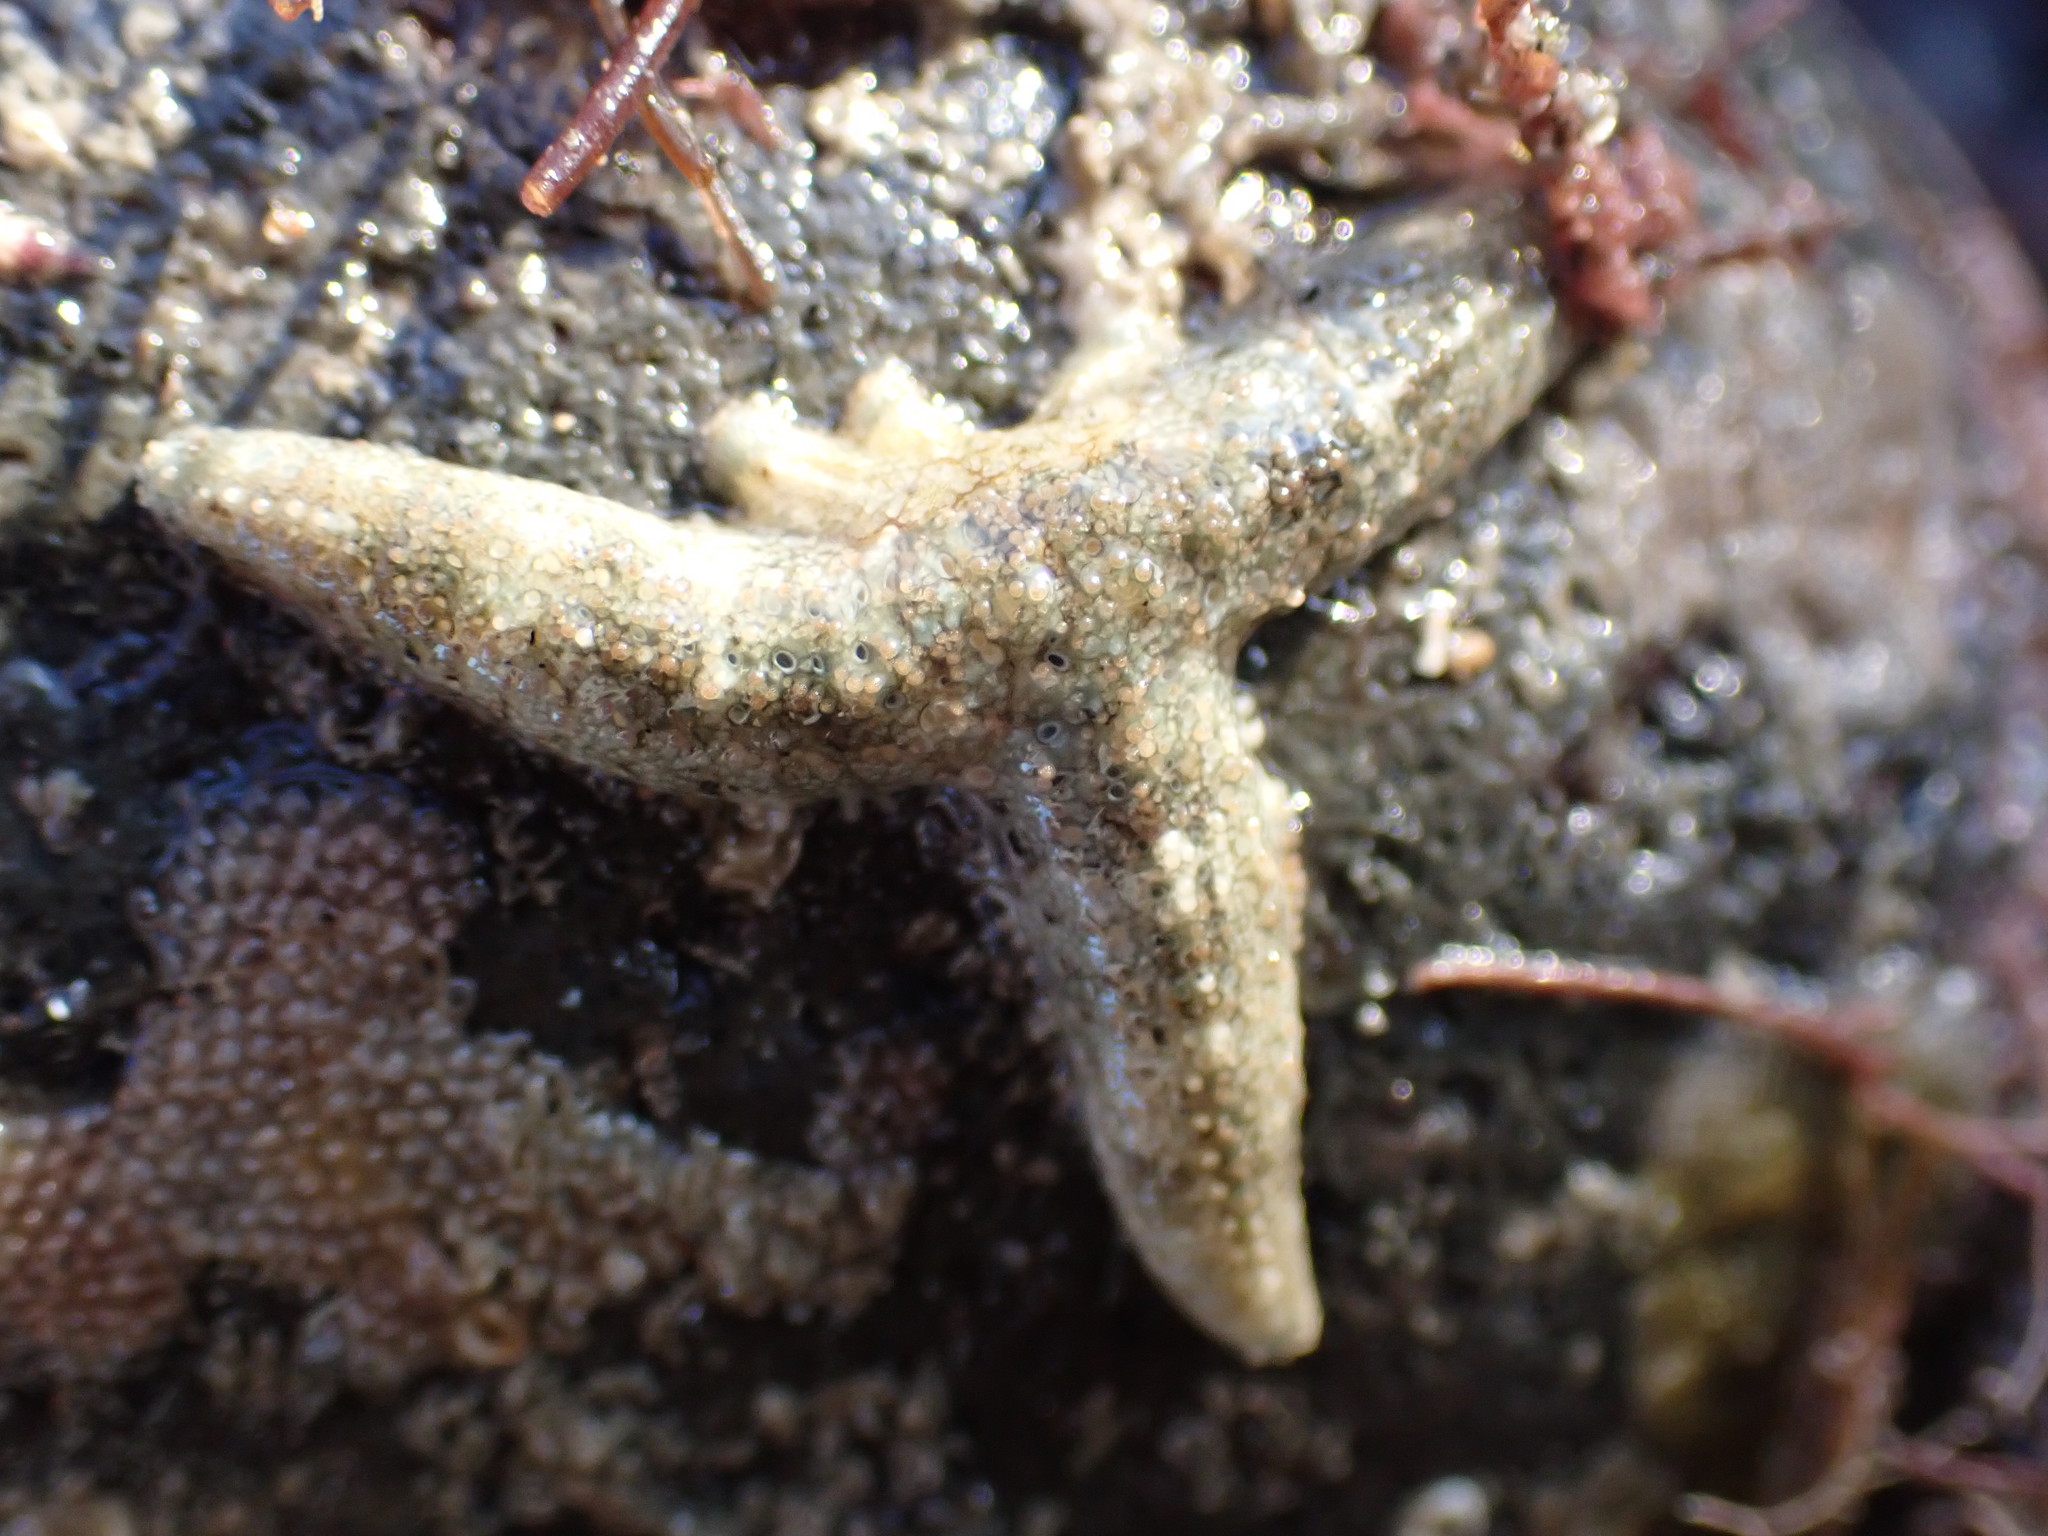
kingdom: Animalia
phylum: Echinodermata
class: Asteroidea
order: Forcipulatida
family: Stichasteridae
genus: Allostichaster
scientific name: Allostichaster polyplax
